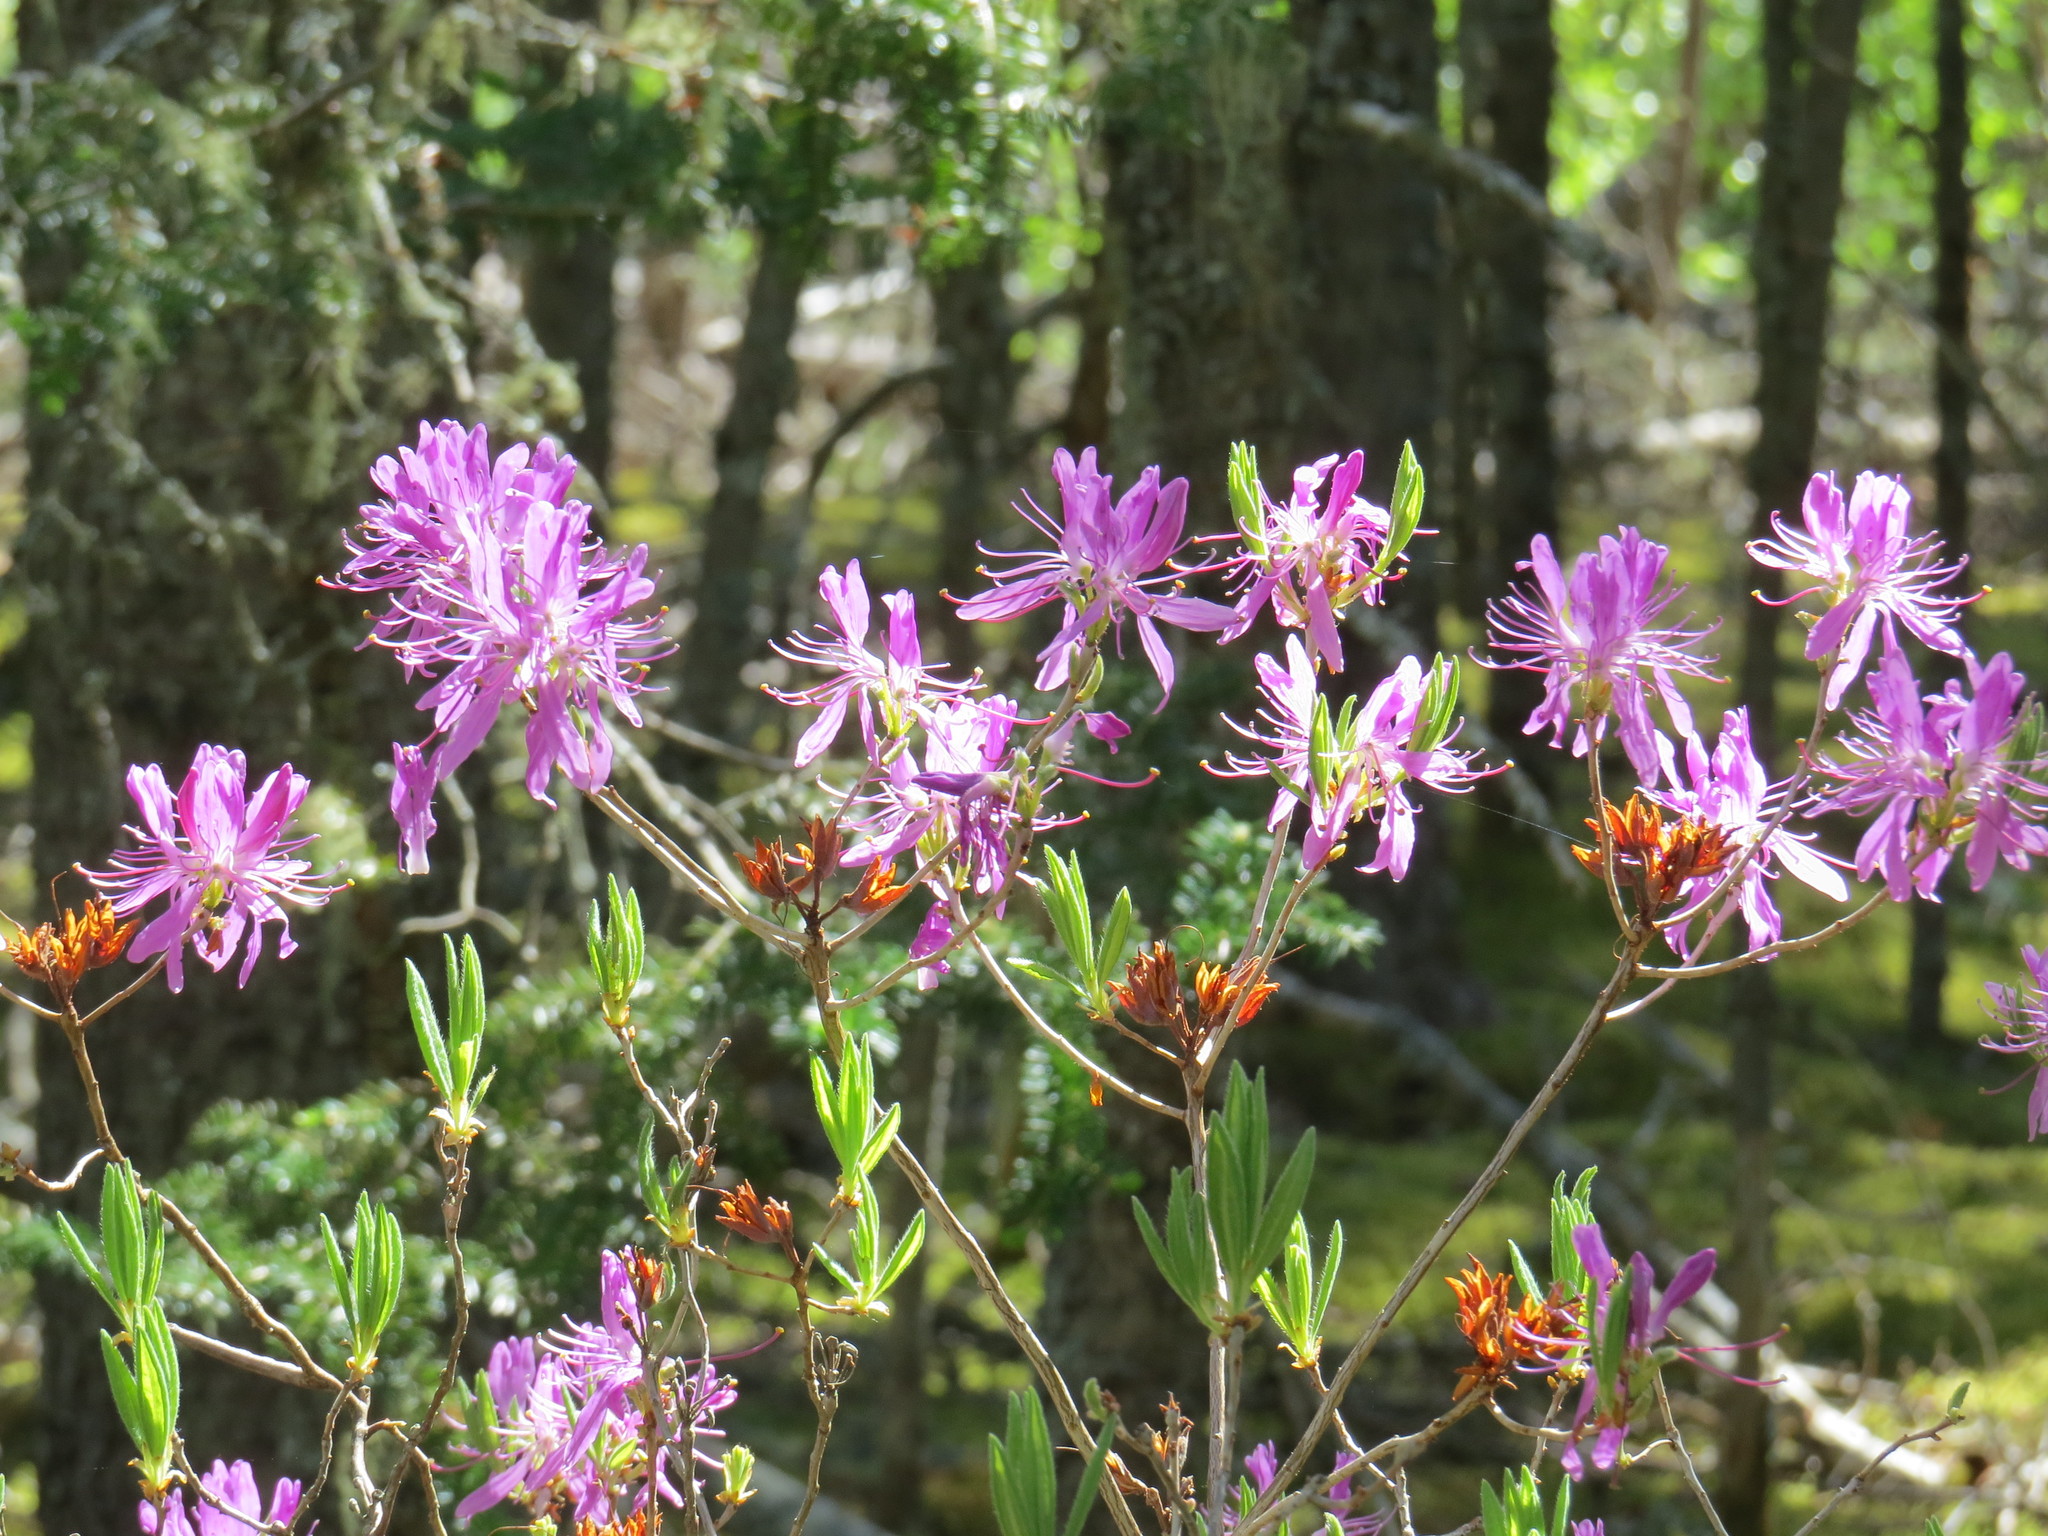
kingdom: Plantae
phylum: Tracheophyta
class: Magnoliopsida
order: Ericales
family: Ericaceae
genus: Rhododendron
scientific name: Rhododendron canadense
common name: Rhodora
